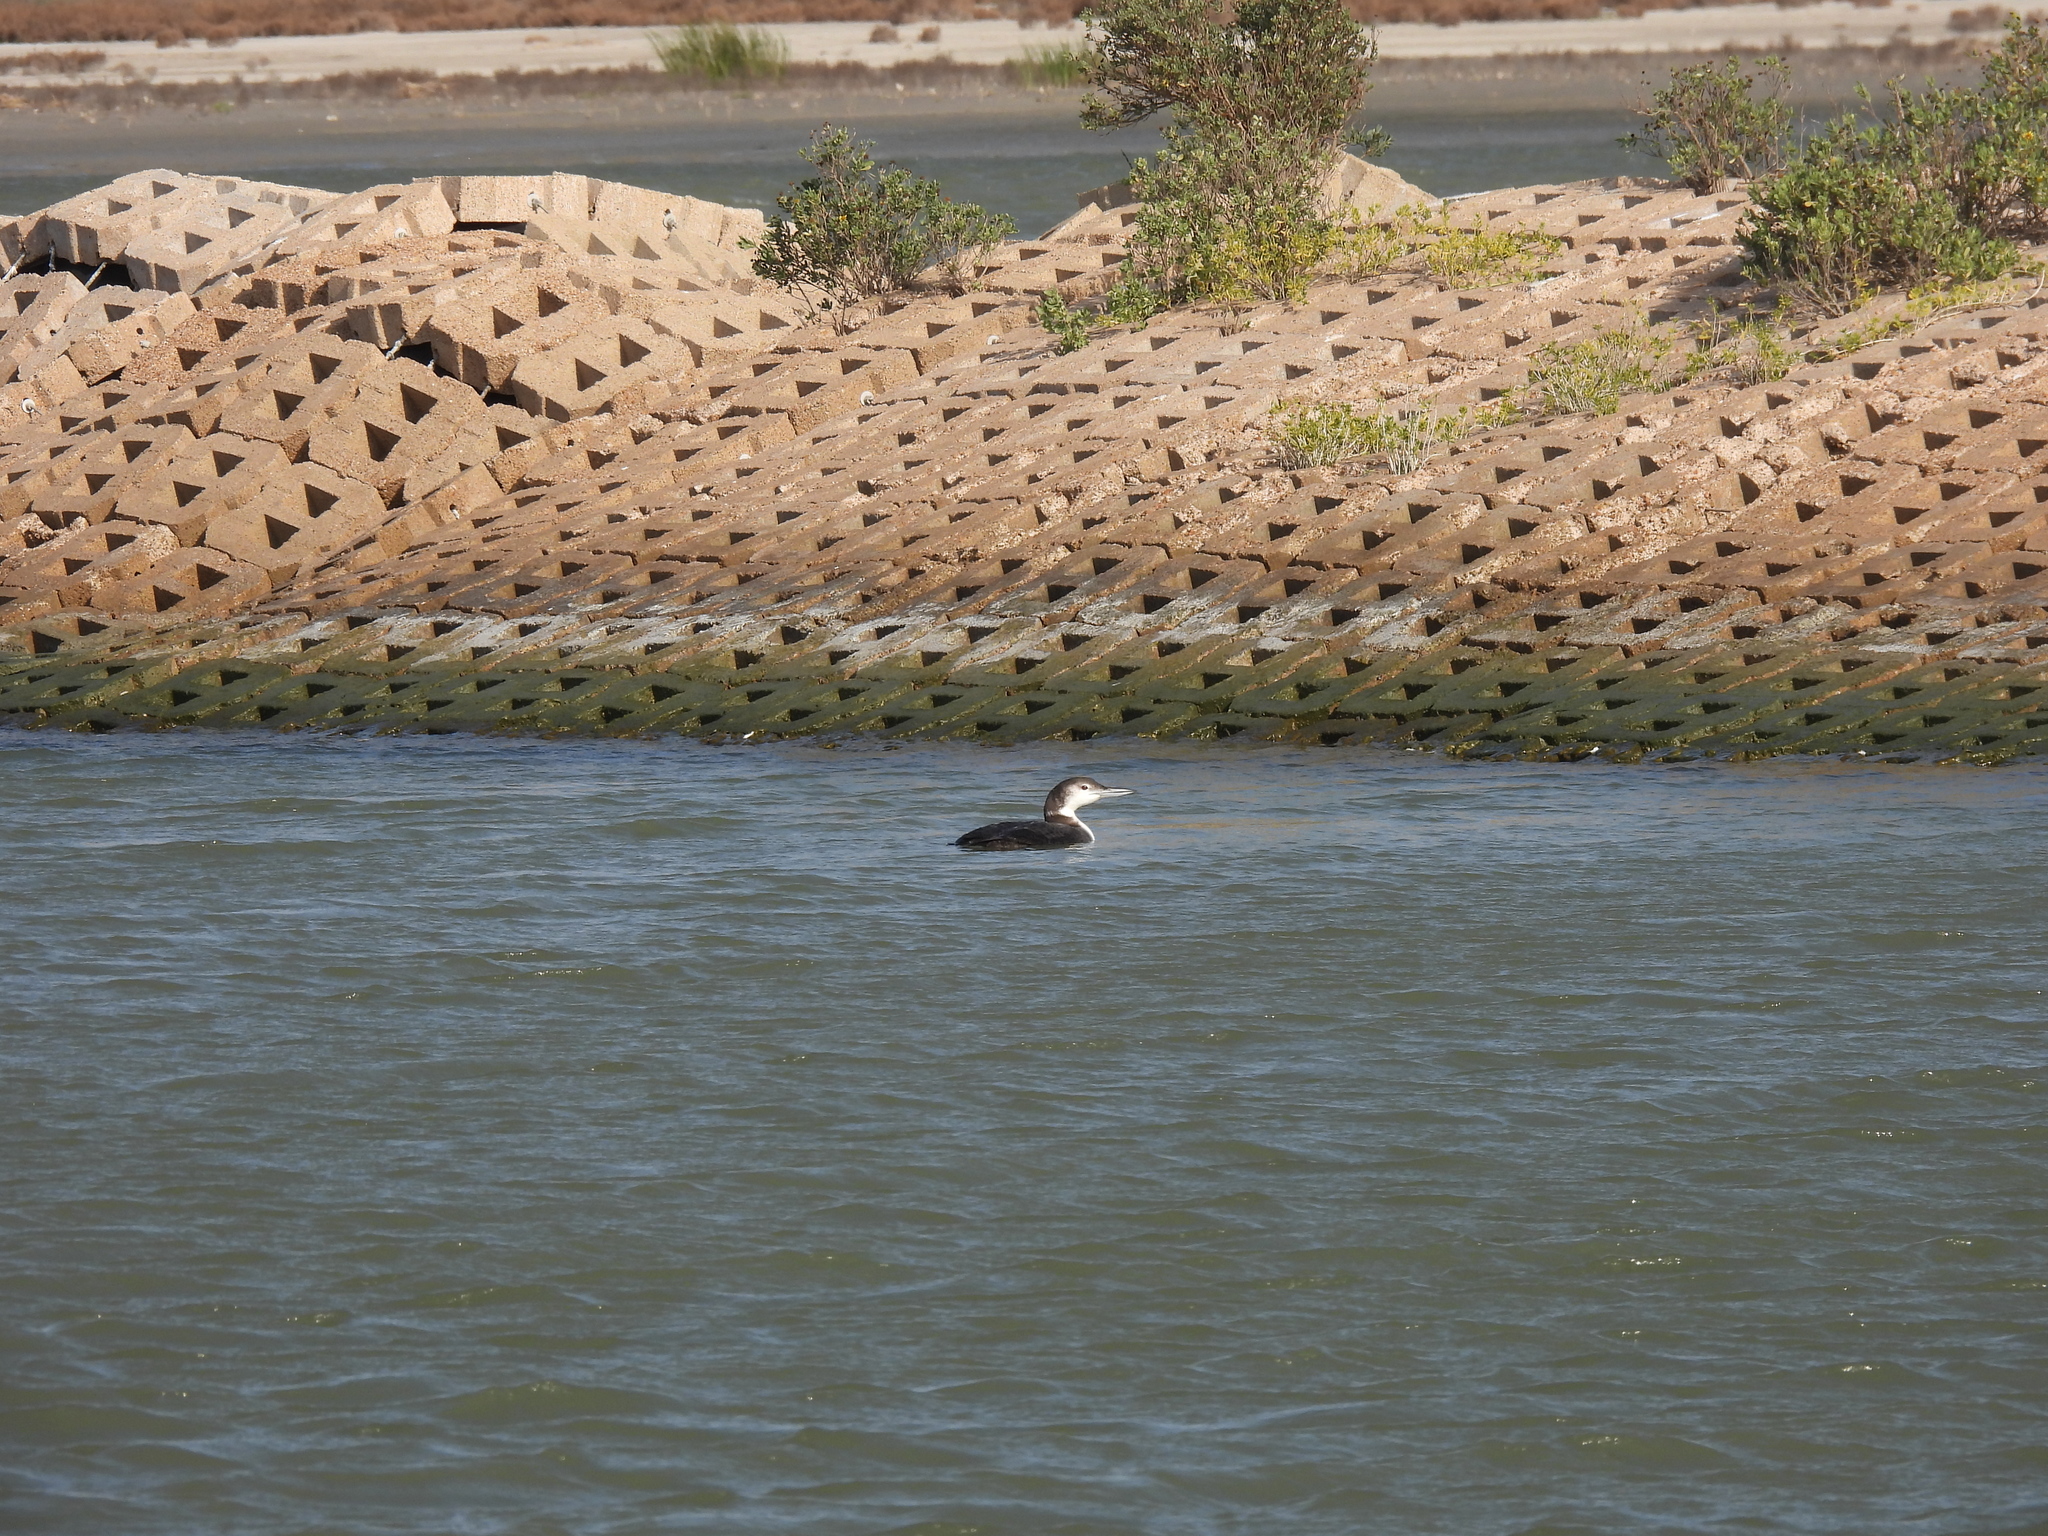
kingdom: Animalia
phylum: Chordata
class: Aves
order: Gaviiformes
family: Gaviidae
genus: Gavia
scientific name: Gavia immer
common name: Common loon
